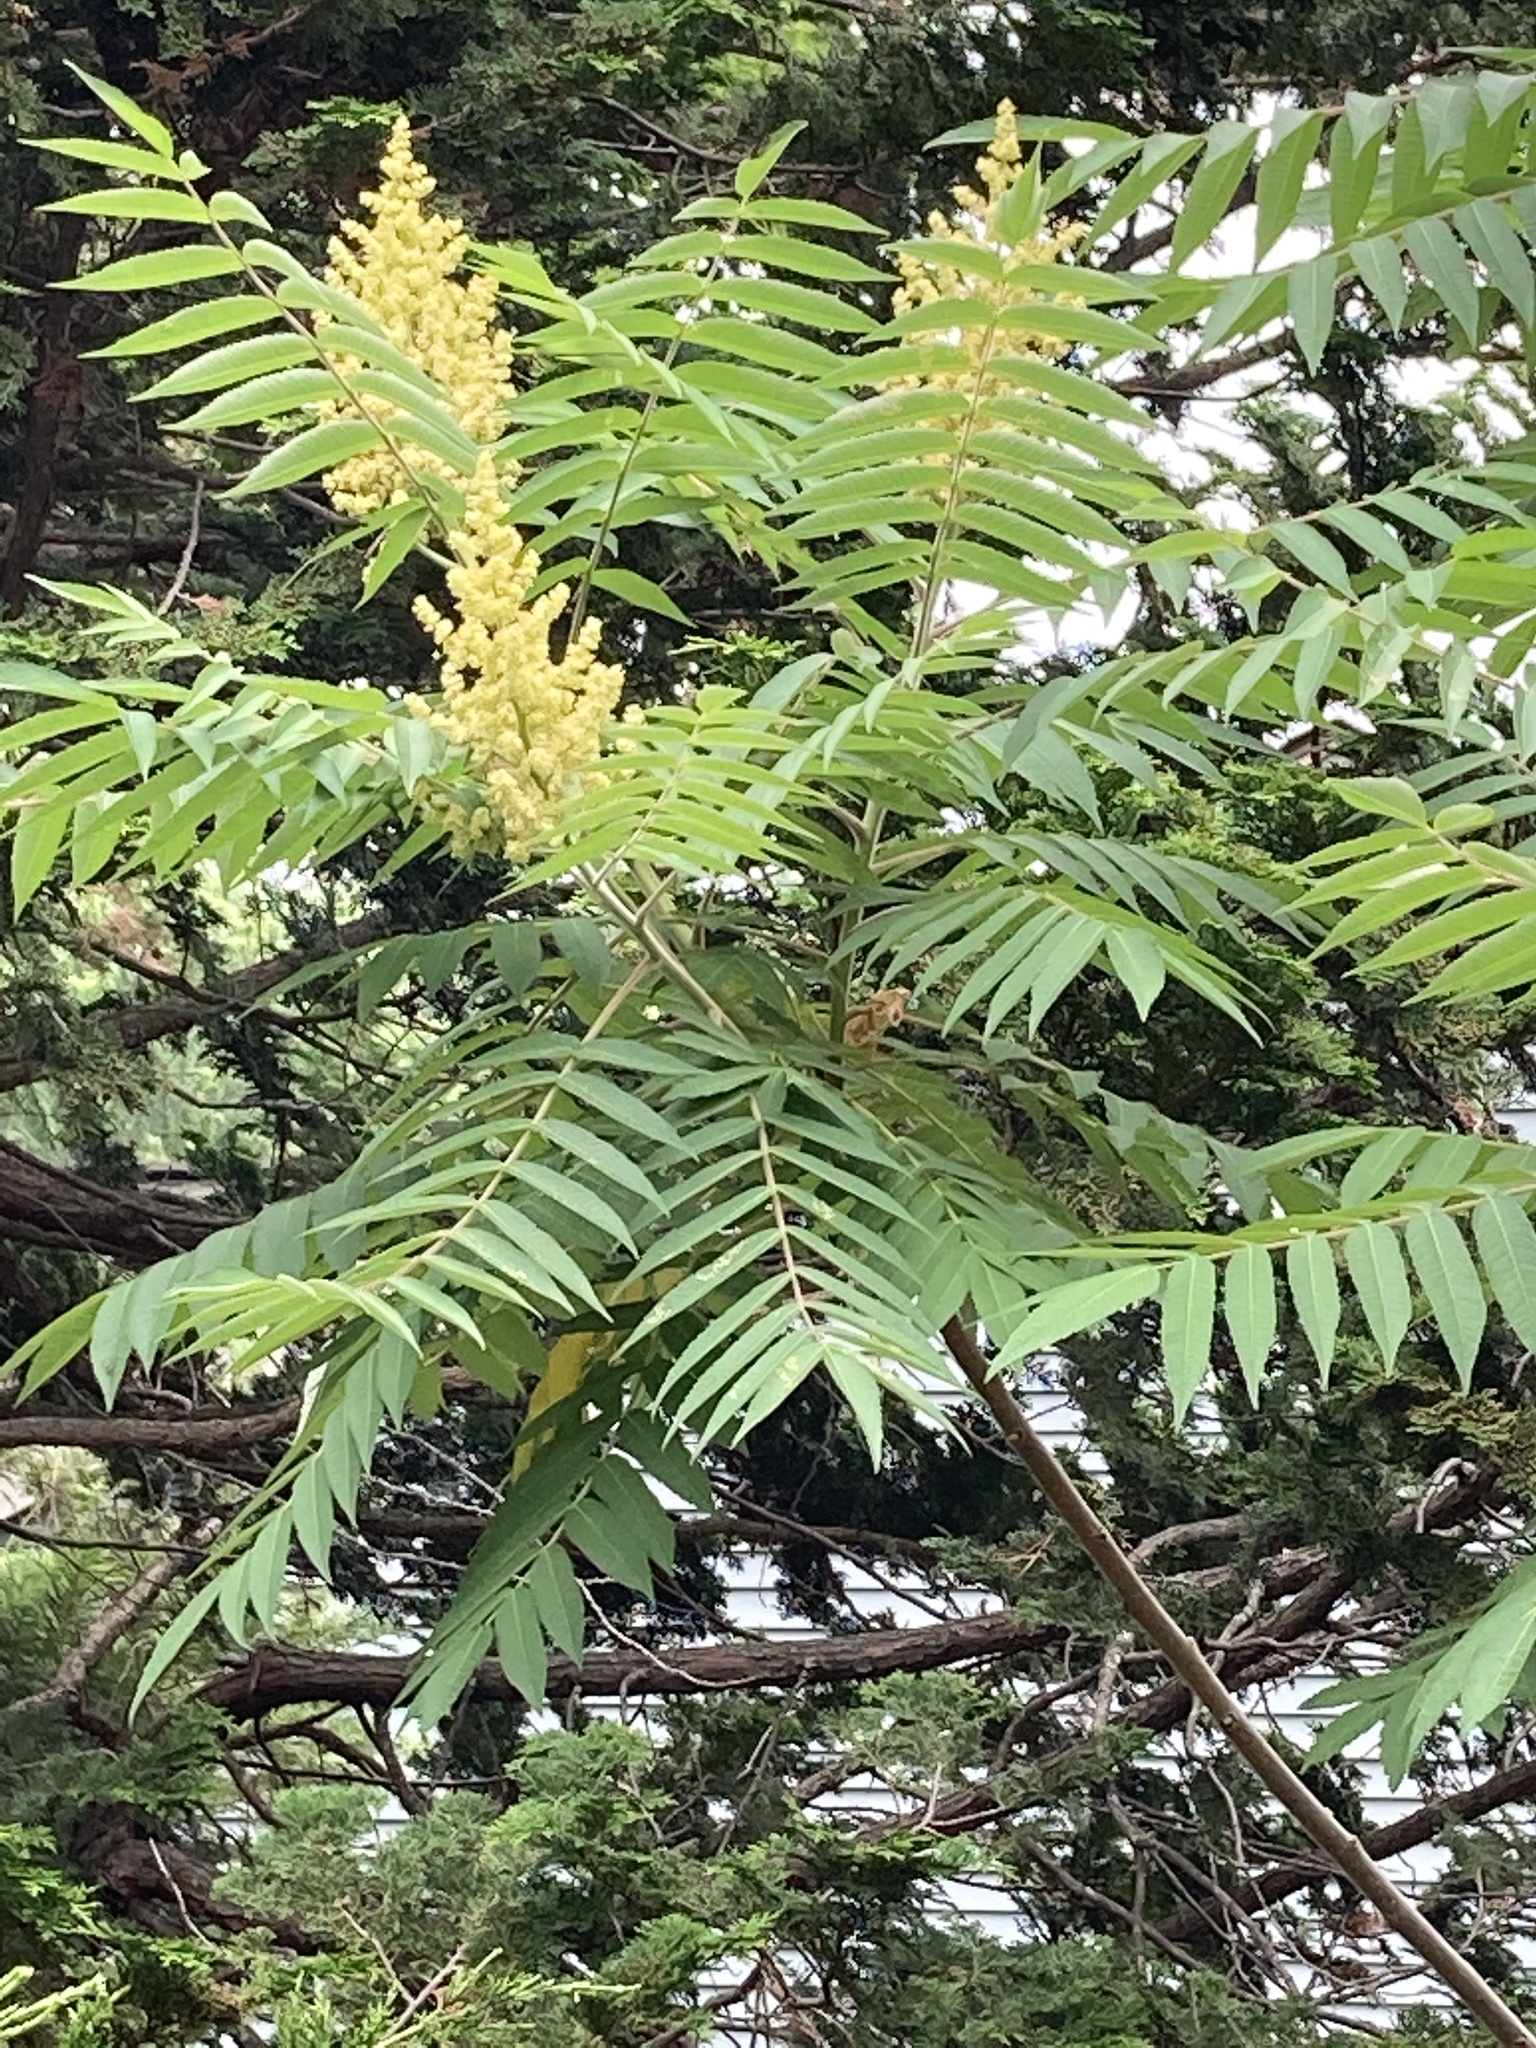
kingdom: Plantae
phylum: Tracheophyta
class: Magnoliopsida
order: Sapindales
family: Anacardiaceae
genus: Rhus
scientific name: Rhus typhina
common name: Staghorn sumac
